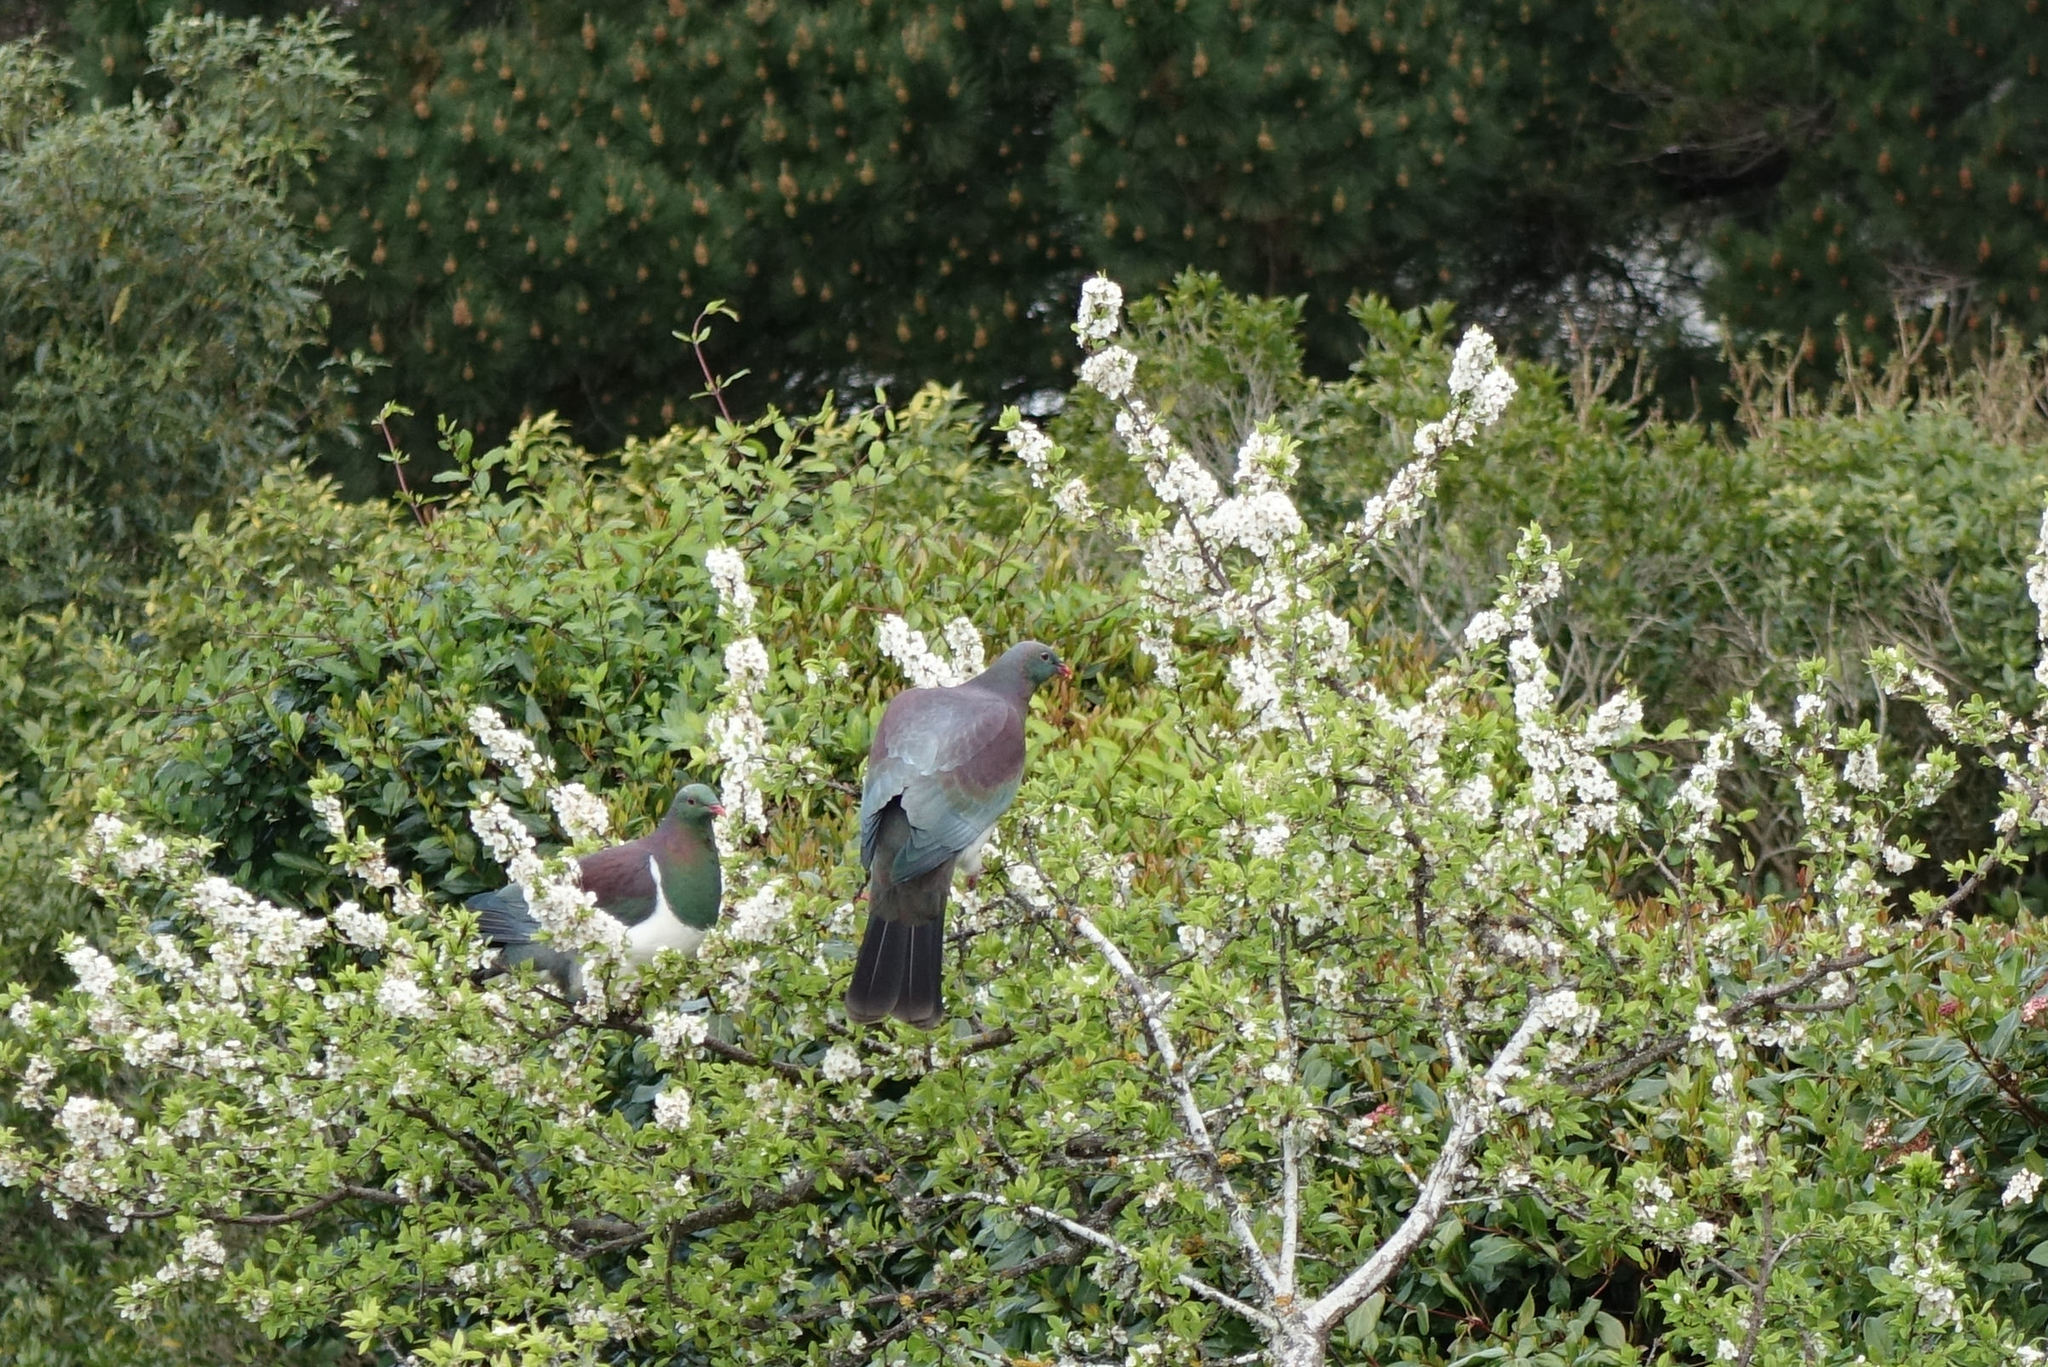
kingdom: Animalia
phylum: Chordata
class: Aves
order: Columbiformes
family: Columbidae
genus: Hemiphaga
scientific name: Hemiphaga novaeseelandiae
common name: New zealand pigeon
